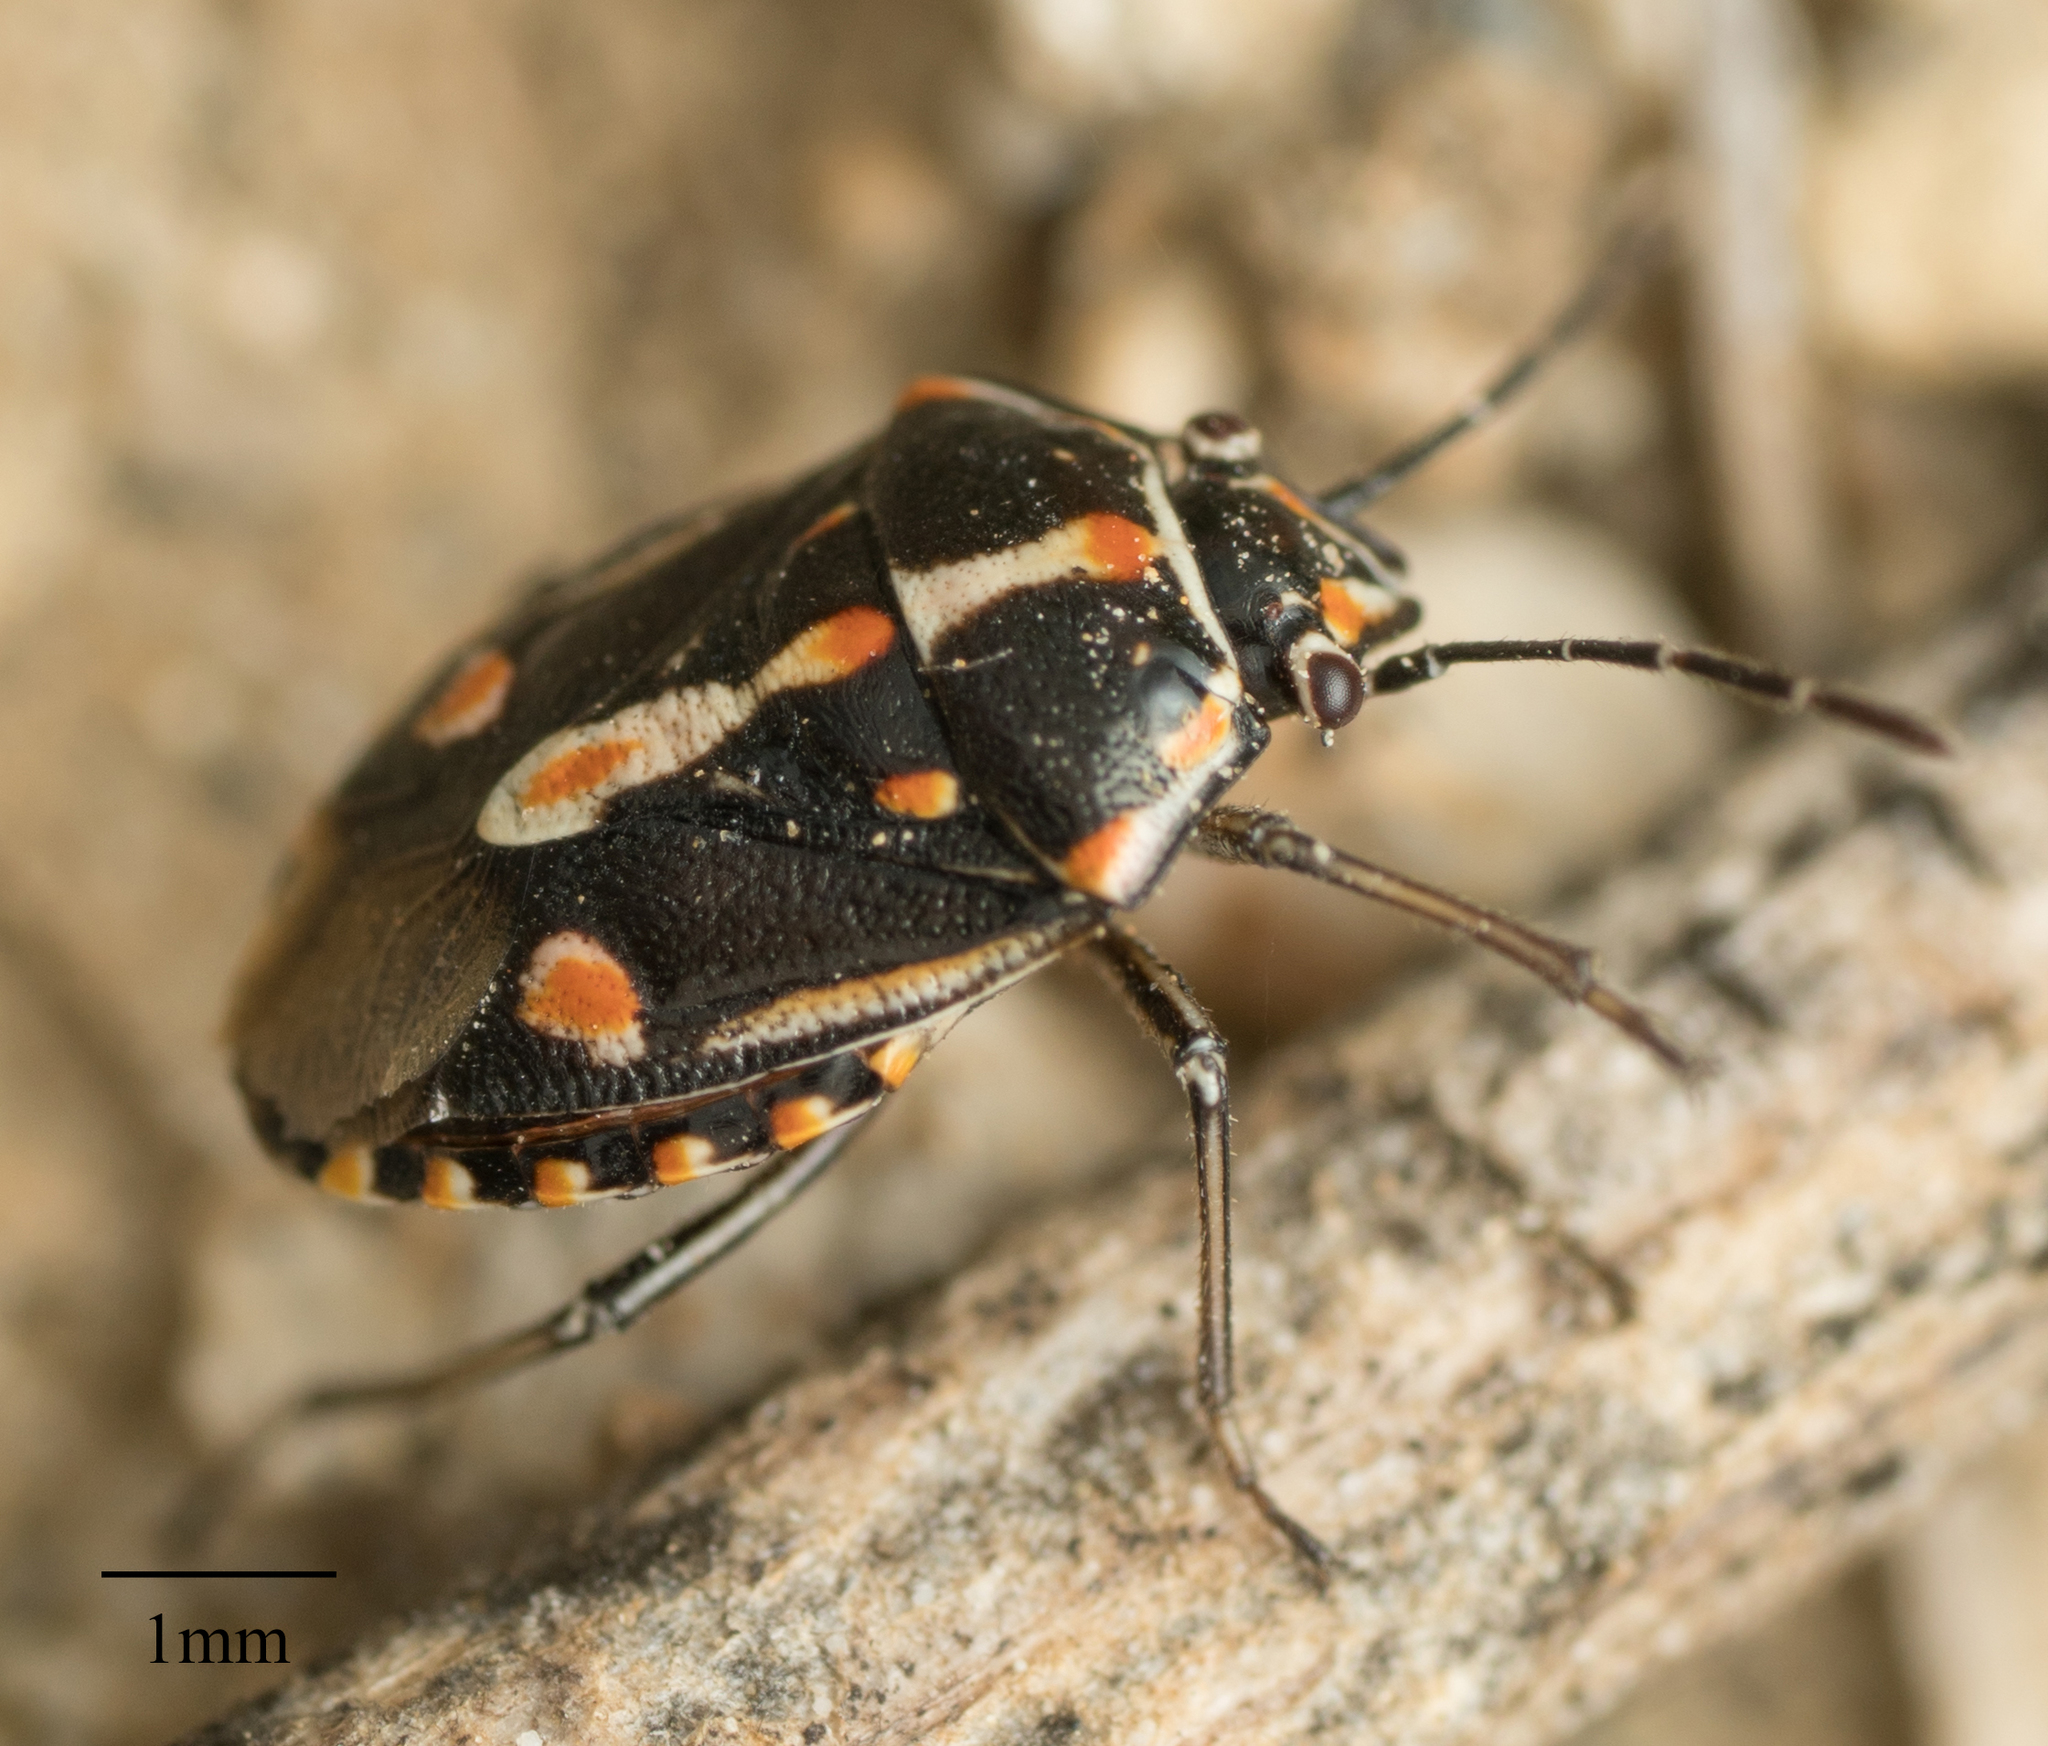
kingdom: Animalia
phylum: Arthropoda
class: Insecta
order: Hemiptera
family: Pentatomidae
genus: Bagrada
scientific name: Bagrada hilaris
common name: Bagrada bug
